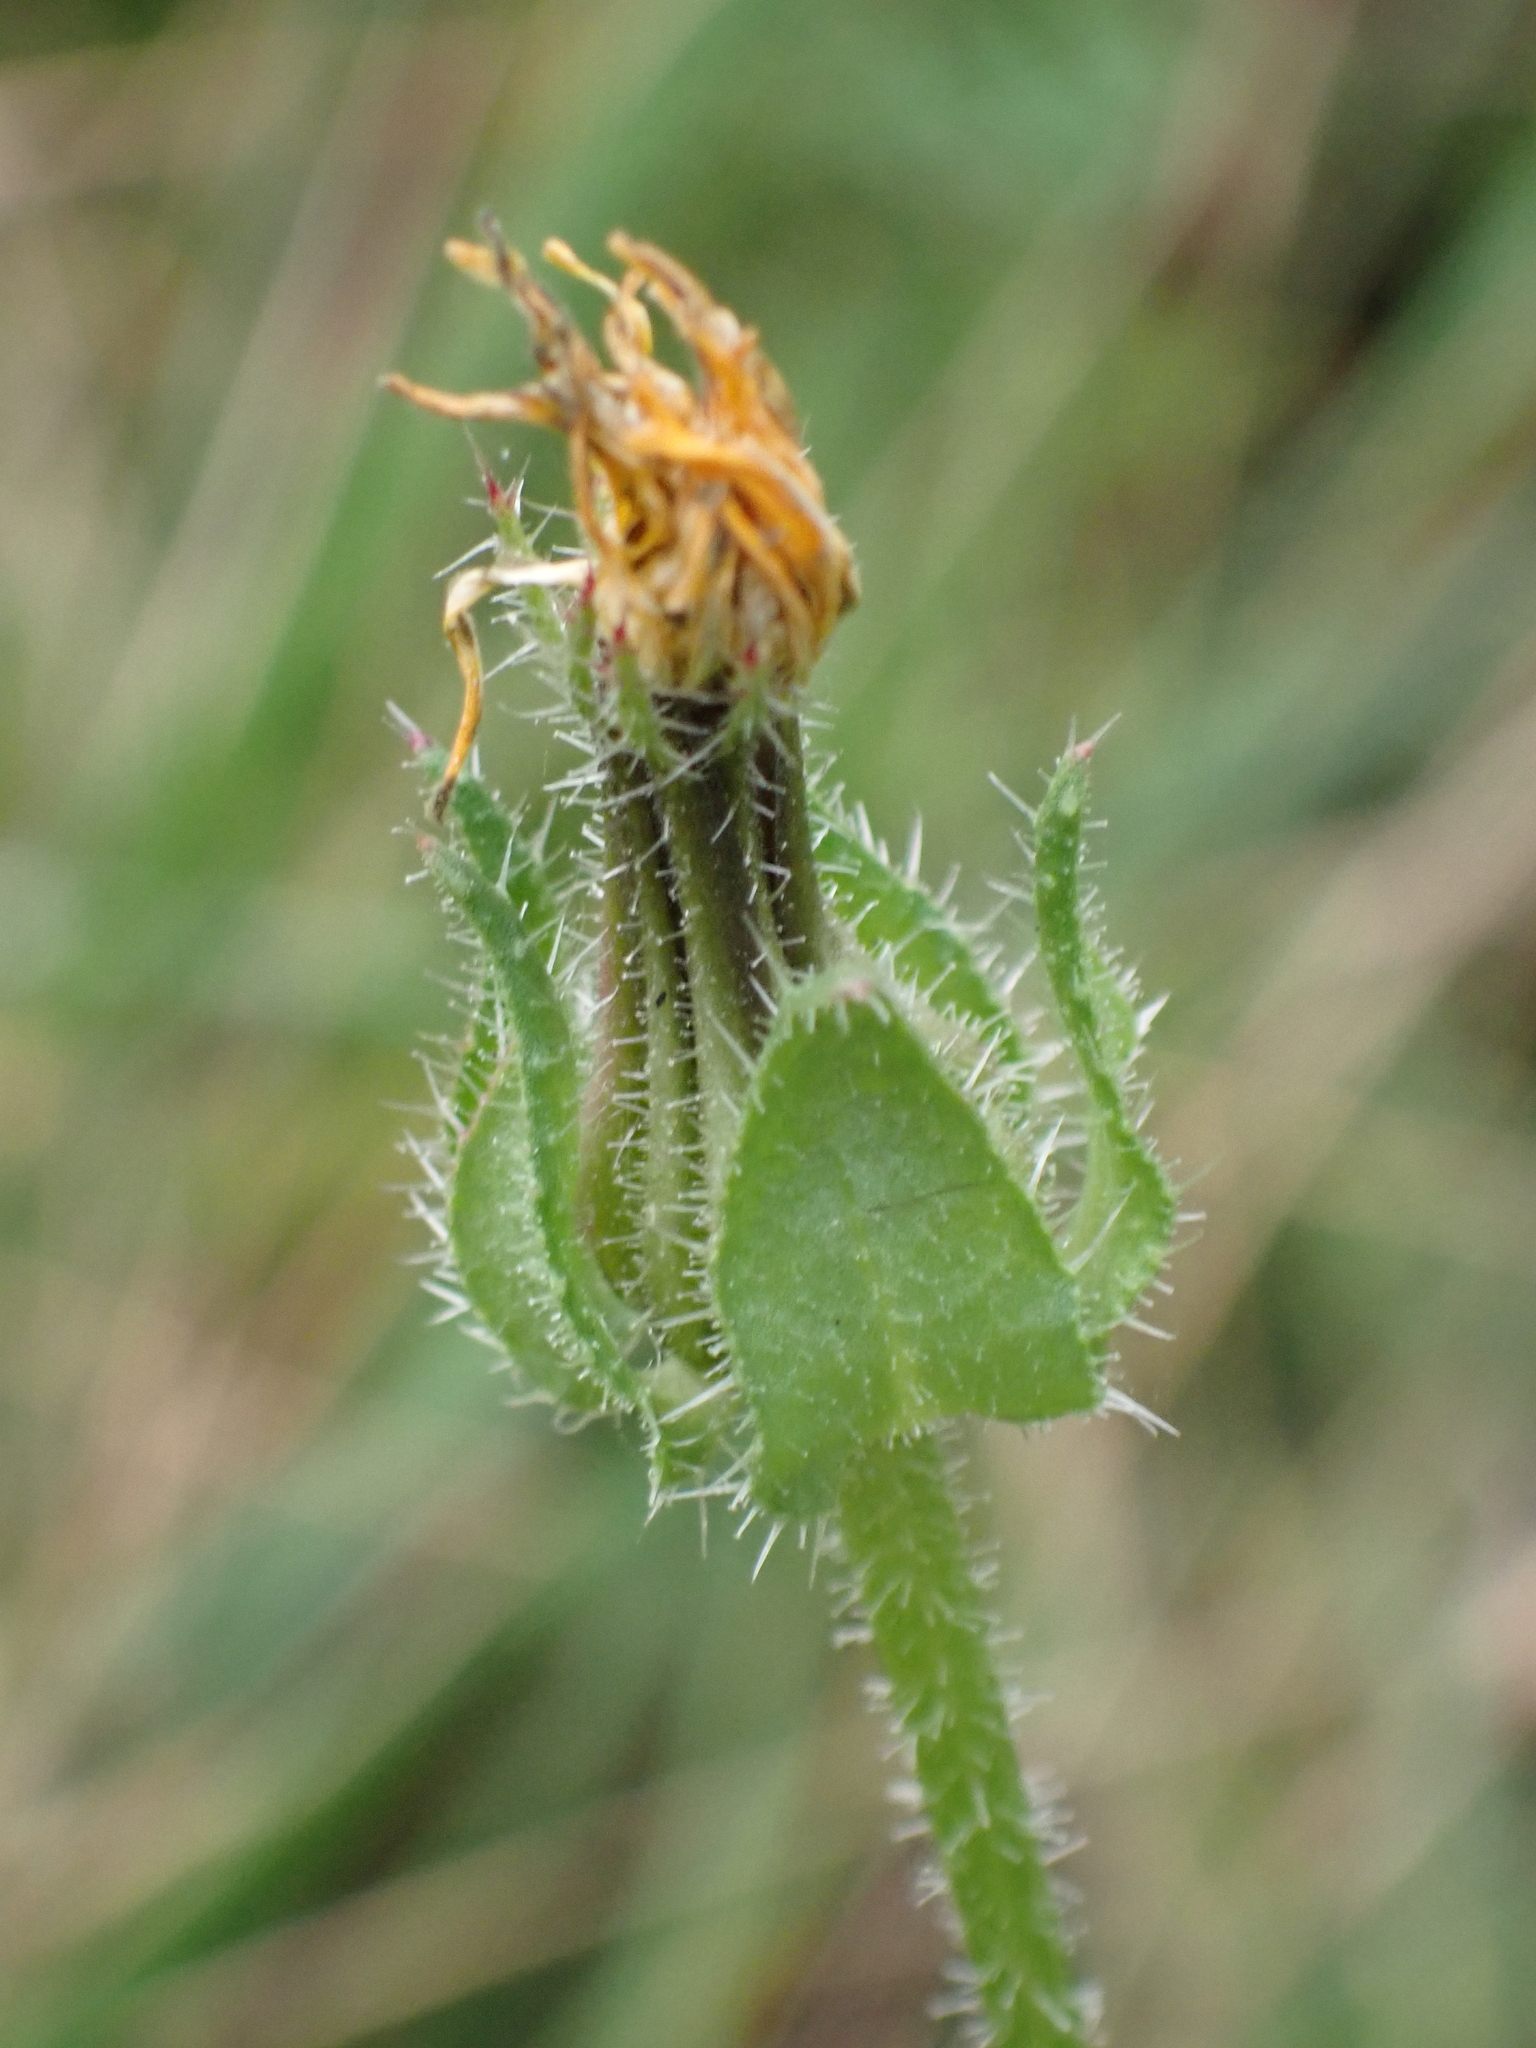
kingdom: Plantae
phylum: Tracheophyta
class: Magnoliopsida
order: Asterales
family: Asteraceae
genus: Helminthotheca
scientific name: Helminthotheca echioides
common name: Ox-tongue
